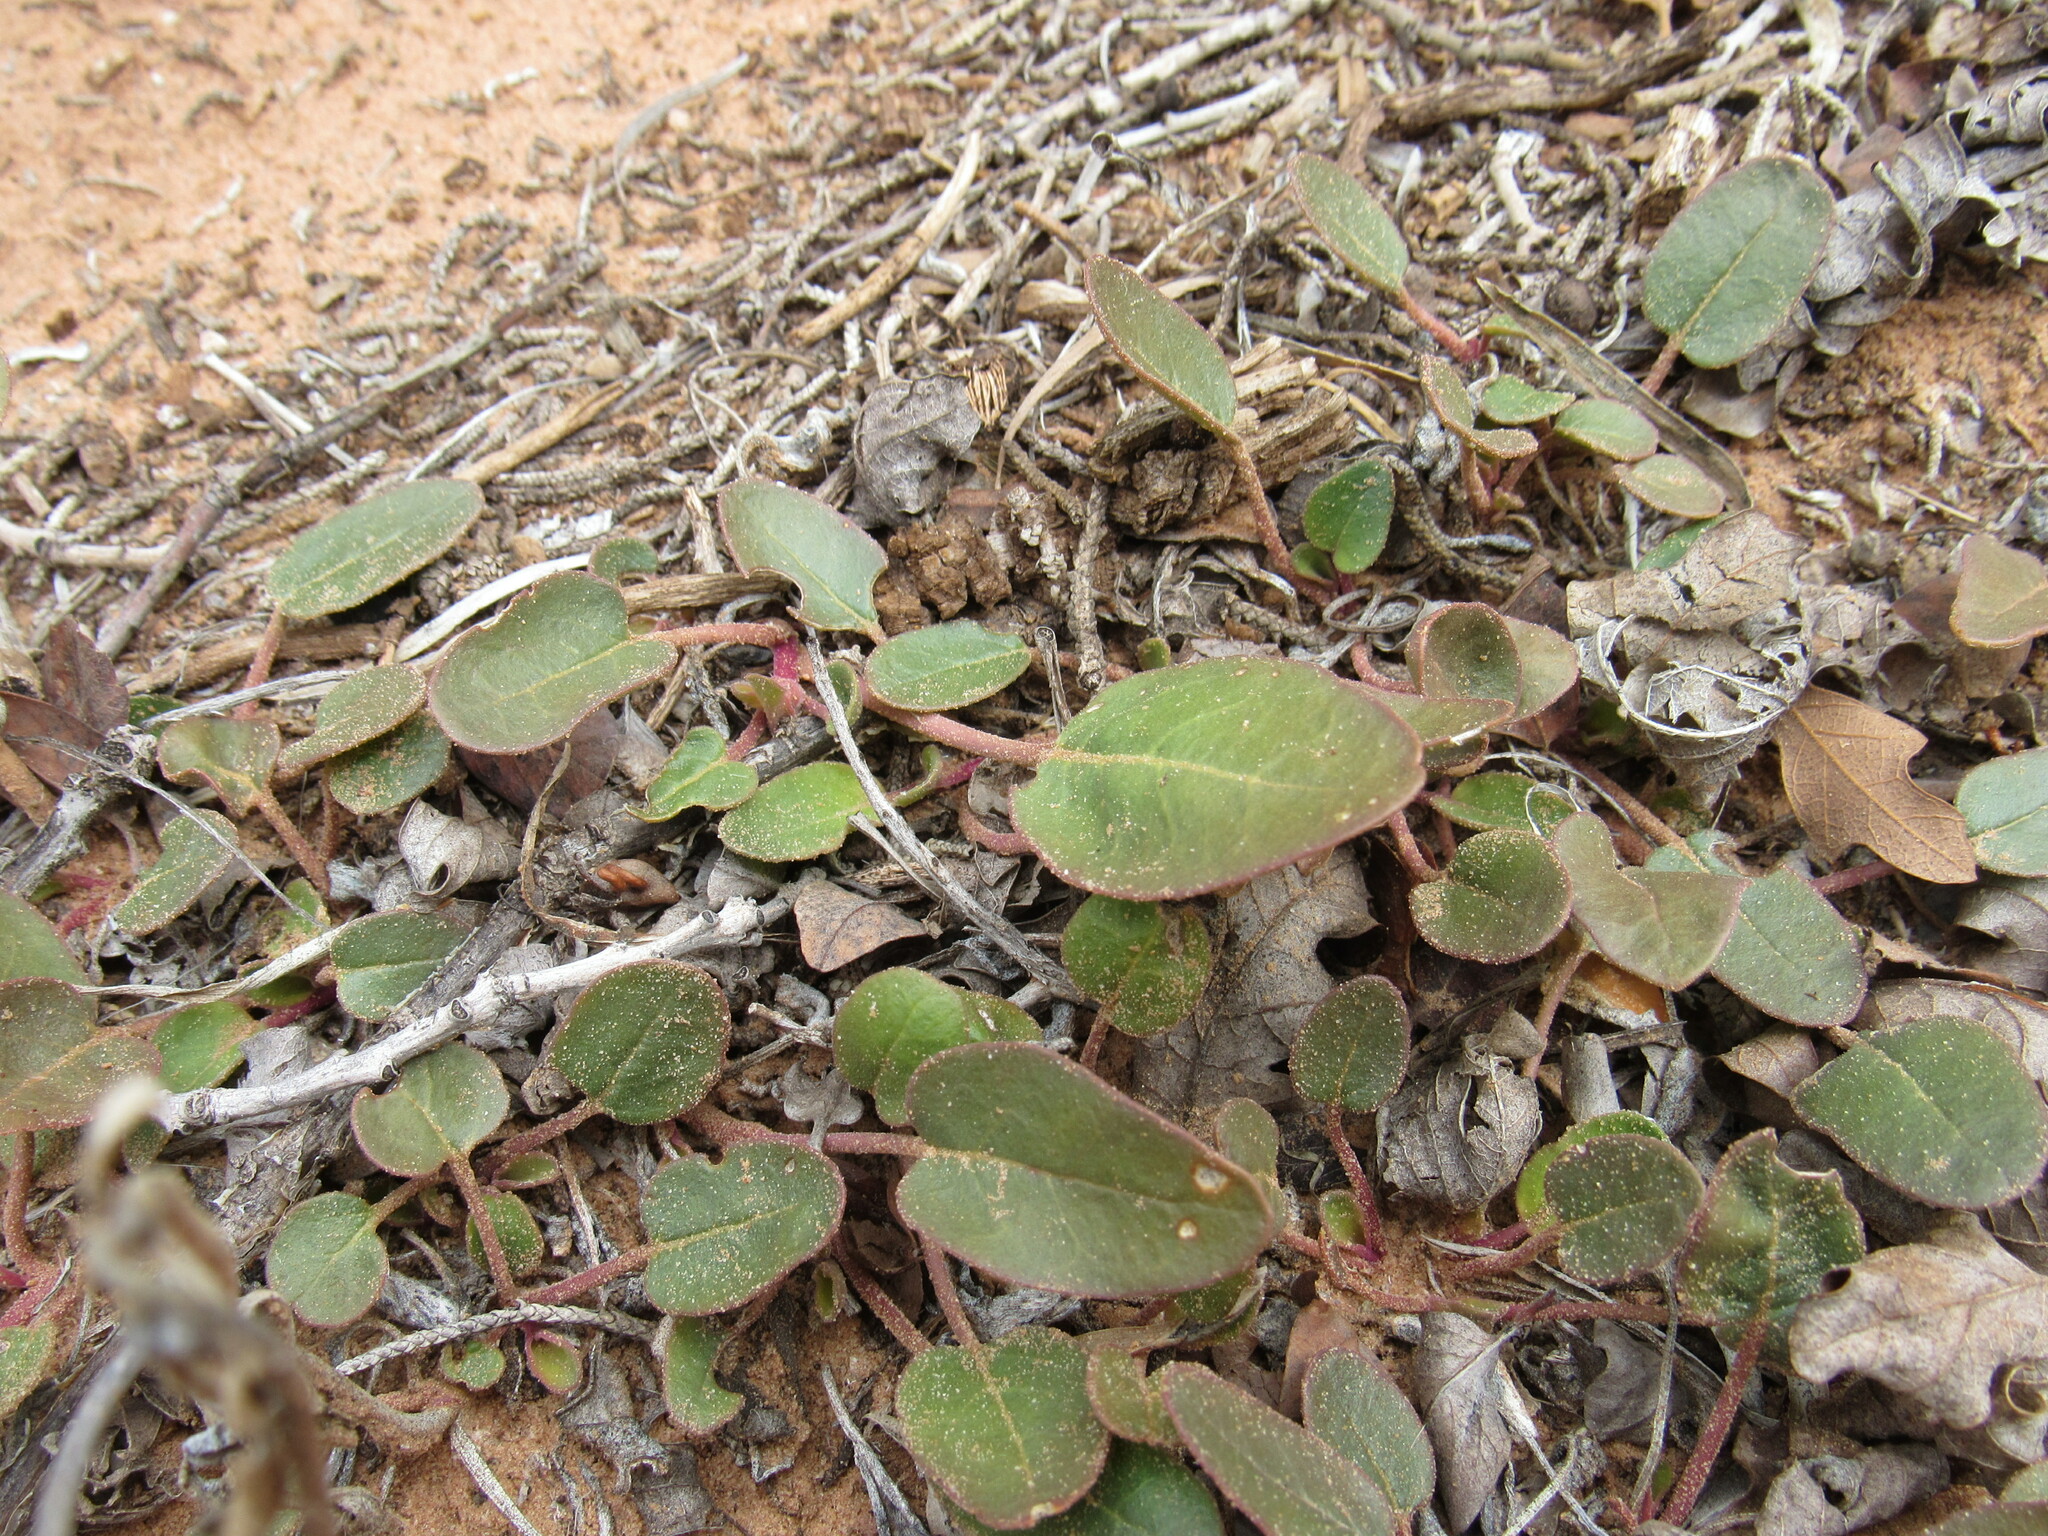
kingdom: Plantae
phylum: Tracheophyta
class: Magnoliopsida
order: Caryophyllales
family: Nyctaginaceae
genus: Abronia
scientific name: Abronia elliptica
